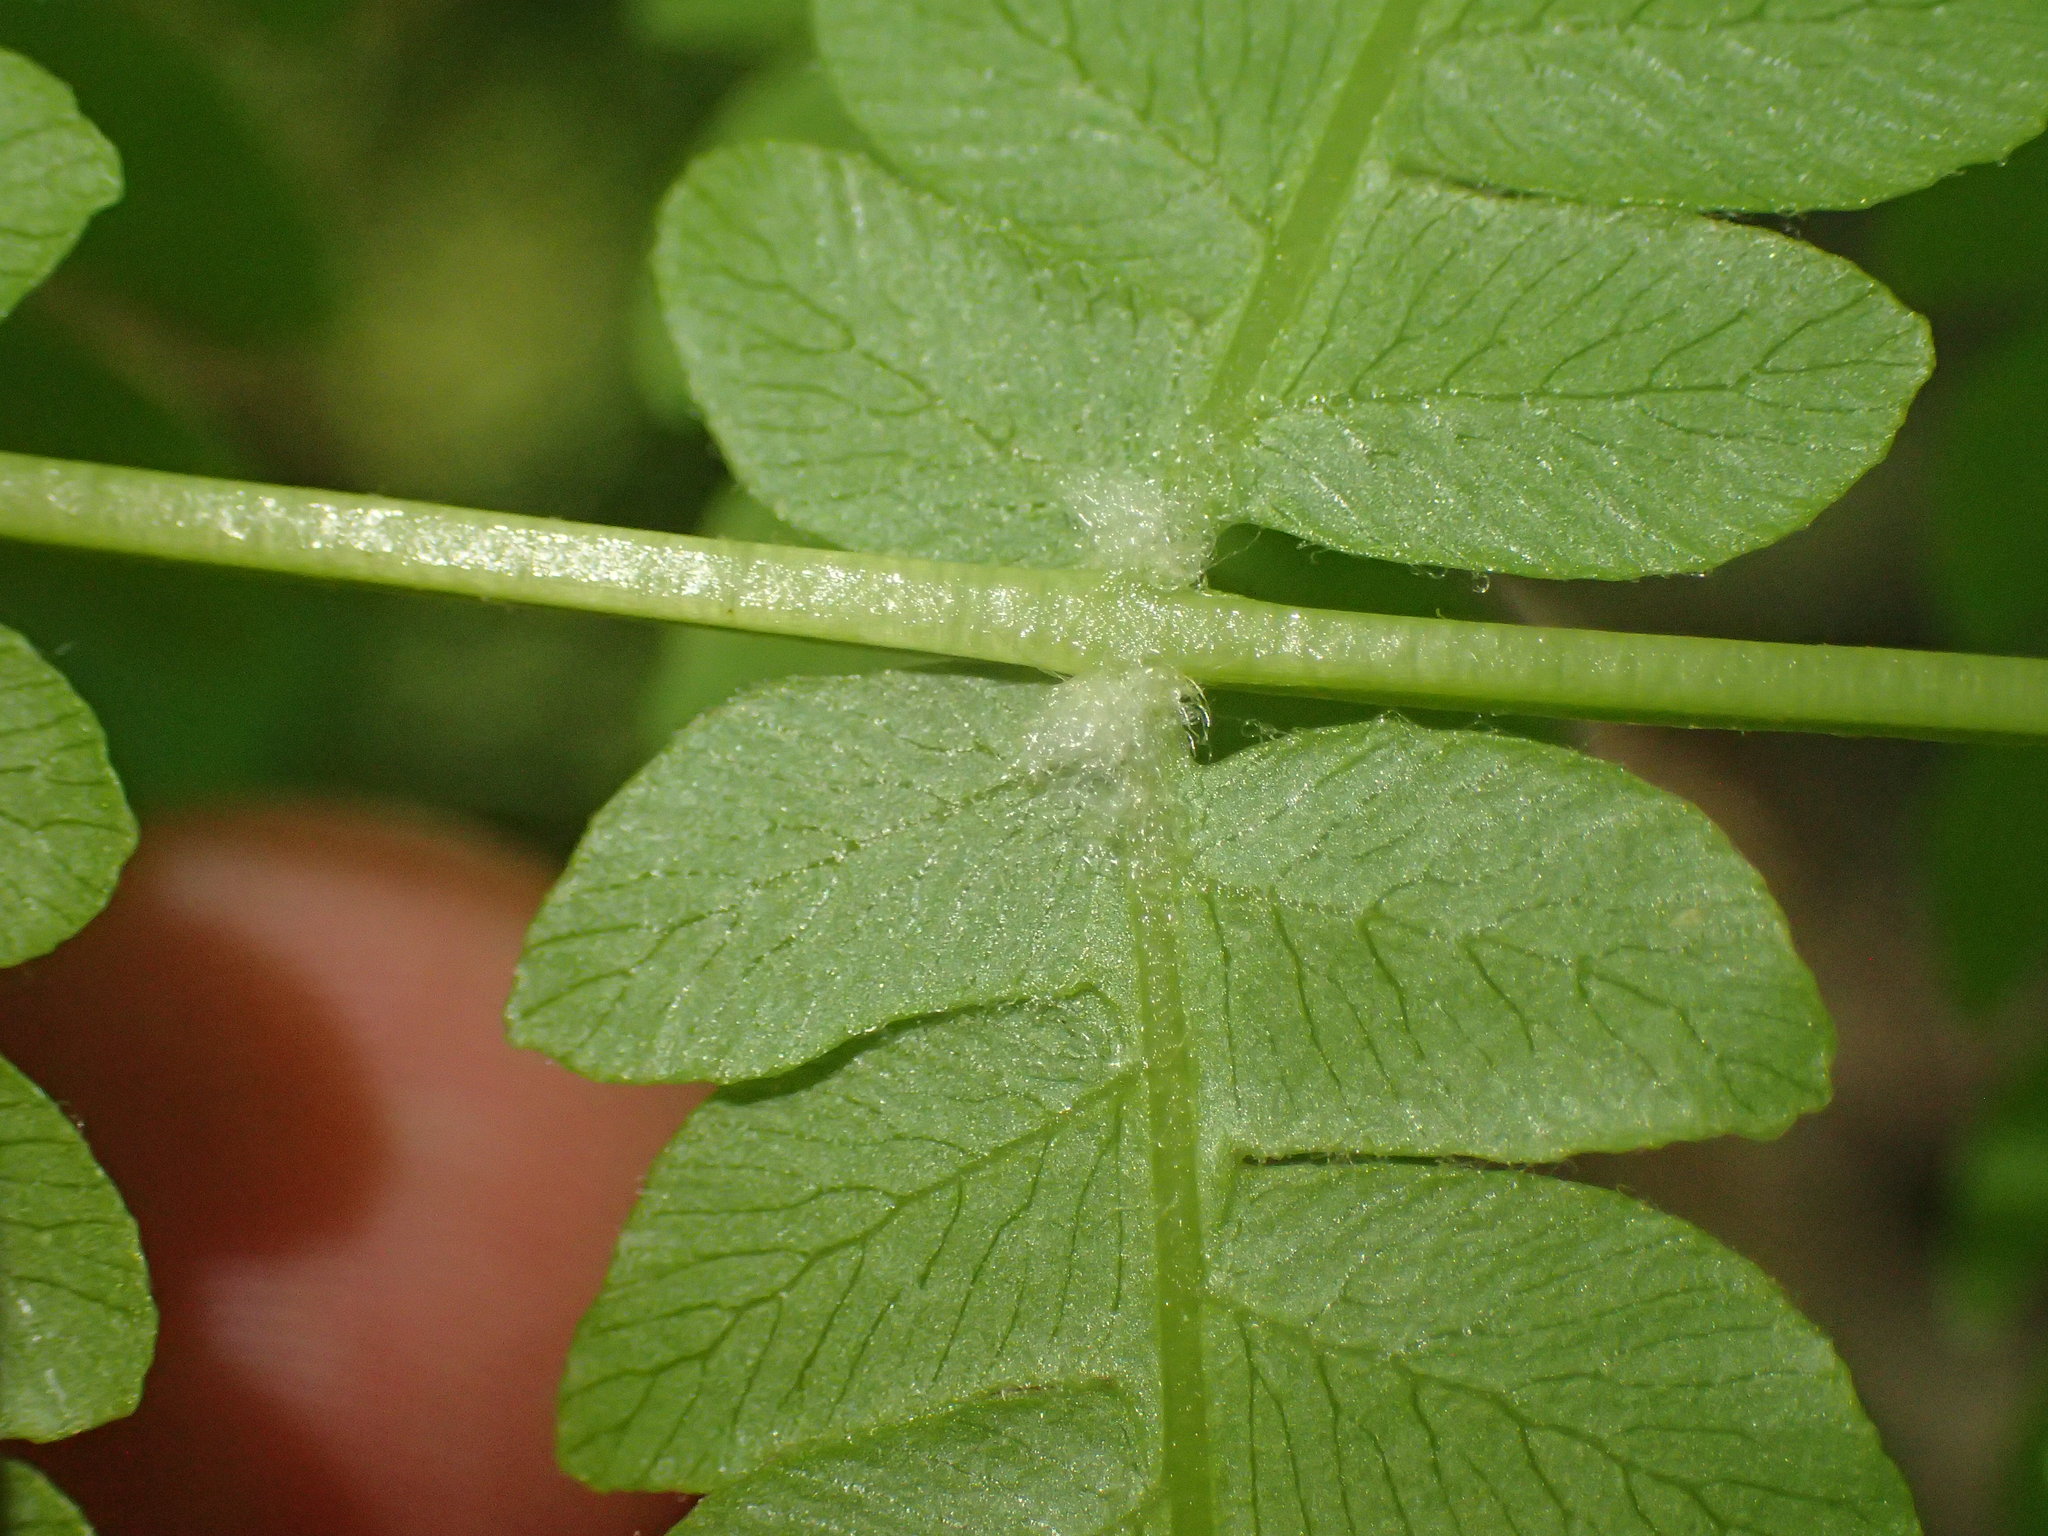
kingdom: Plantae
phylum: Tracheophyta
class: Polypodiopsida
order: Osmundales
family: Osmundaceae
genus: Osmundastrum
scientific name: Osmundastrum cinnamomeum
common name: Cinnamon fern
